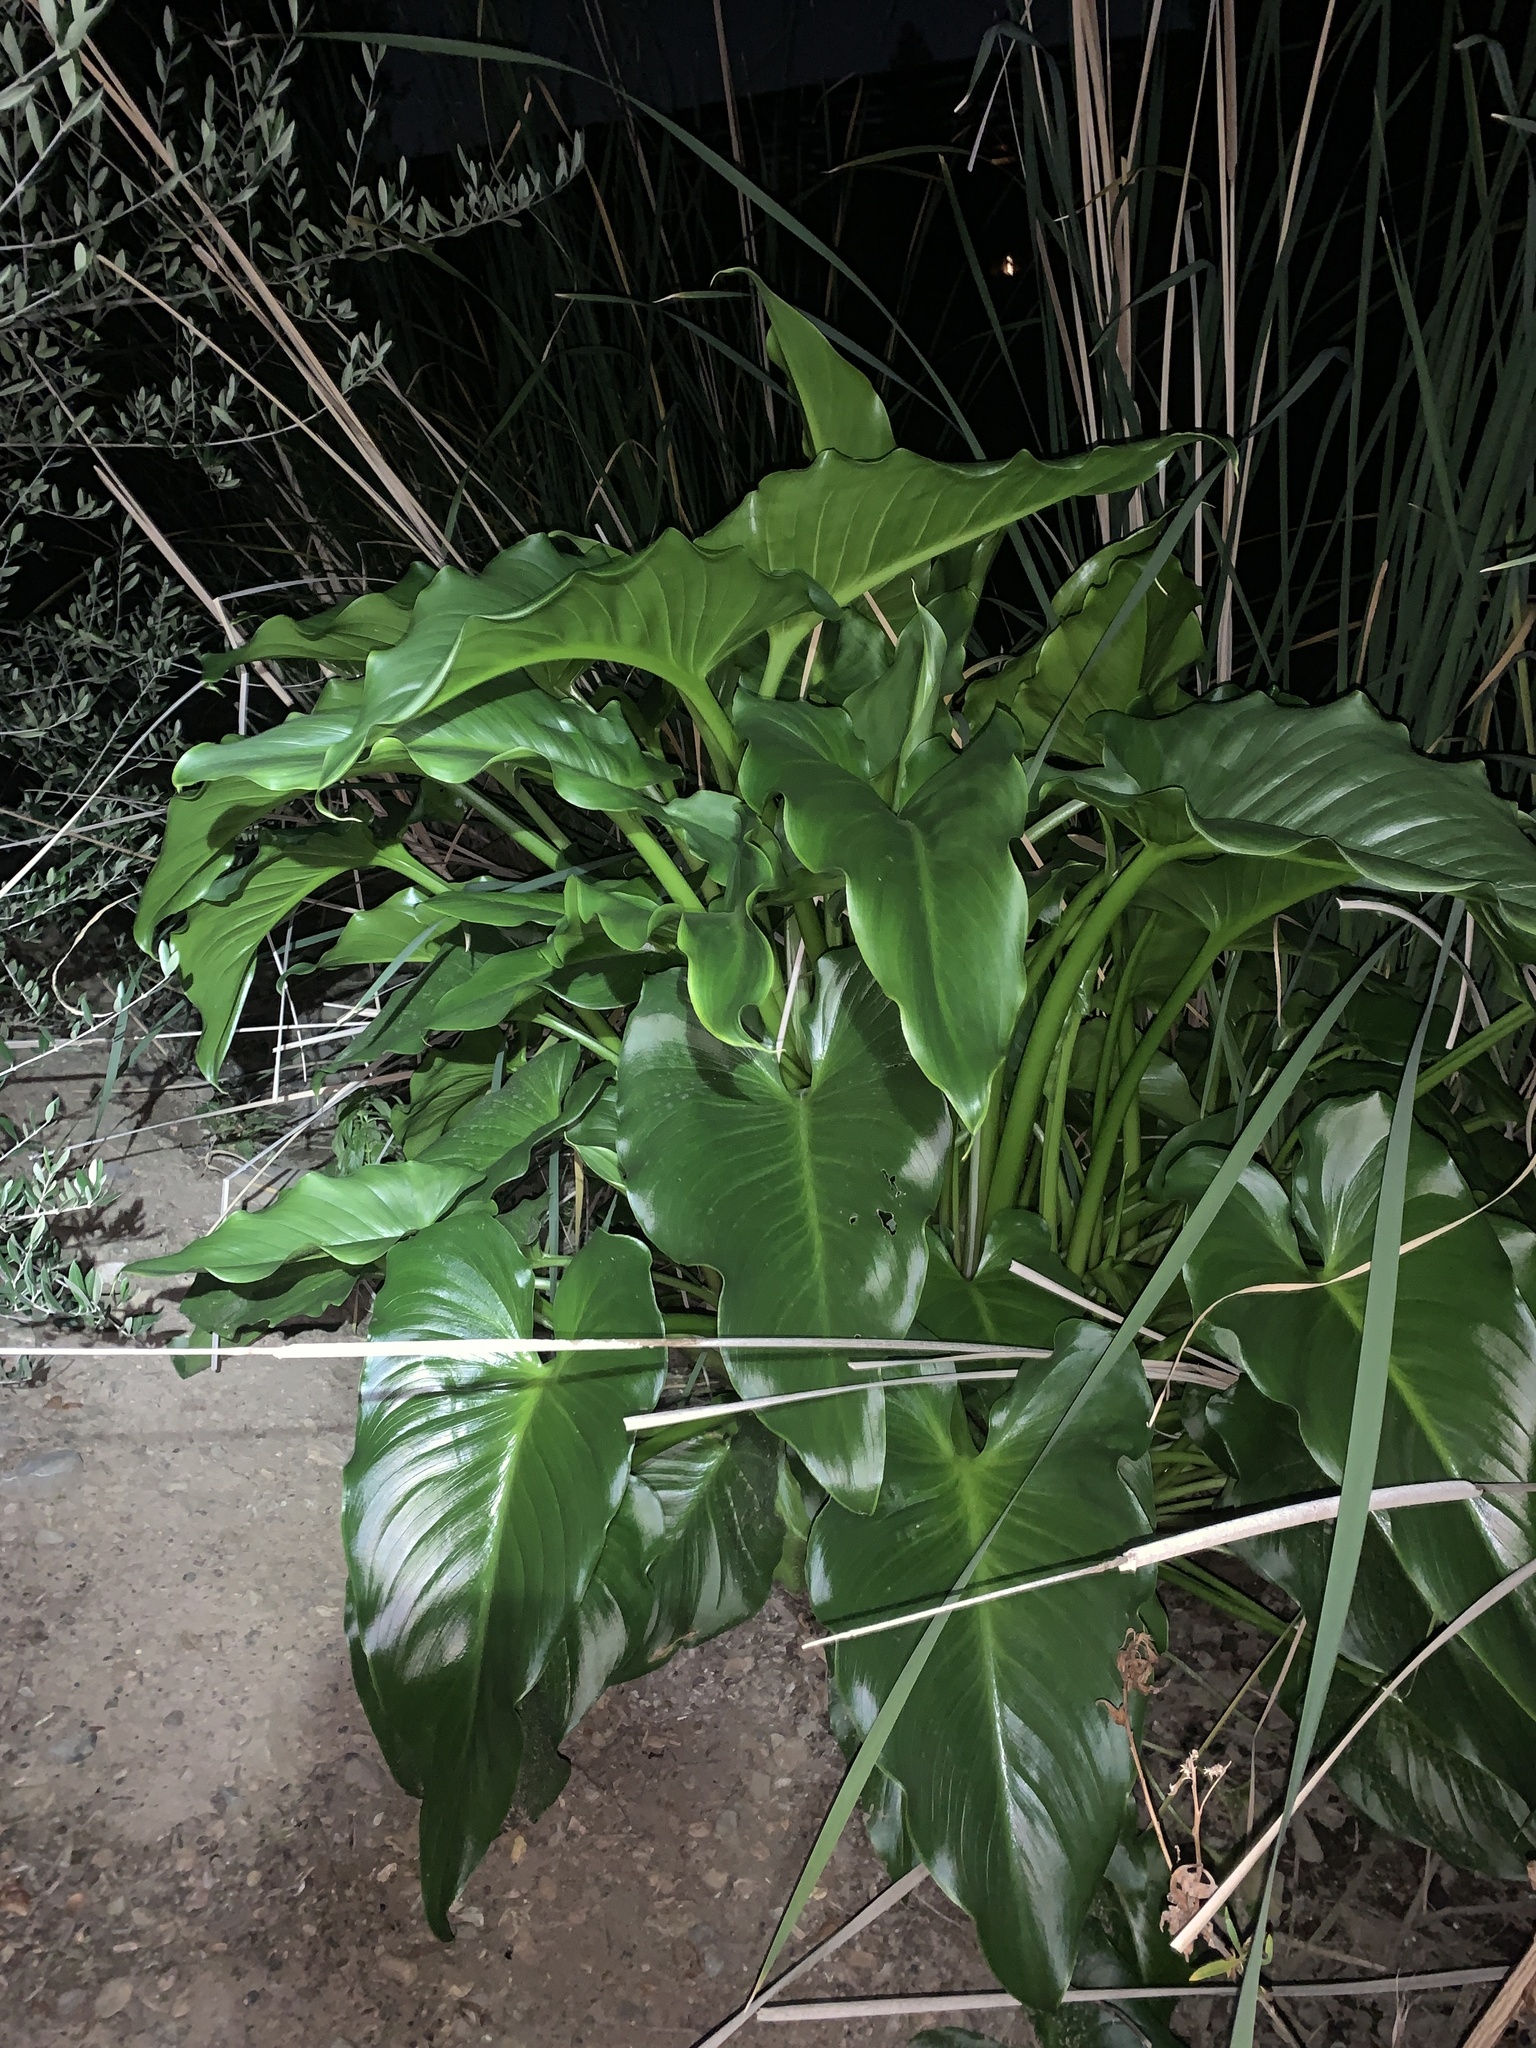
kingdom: Plantae
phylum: Tracheophyta
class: Liliopsida
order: Alismatales
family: Araceae
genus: Zantedeschia
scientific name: Zantedeschia aethiopica
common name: Altar-lily
